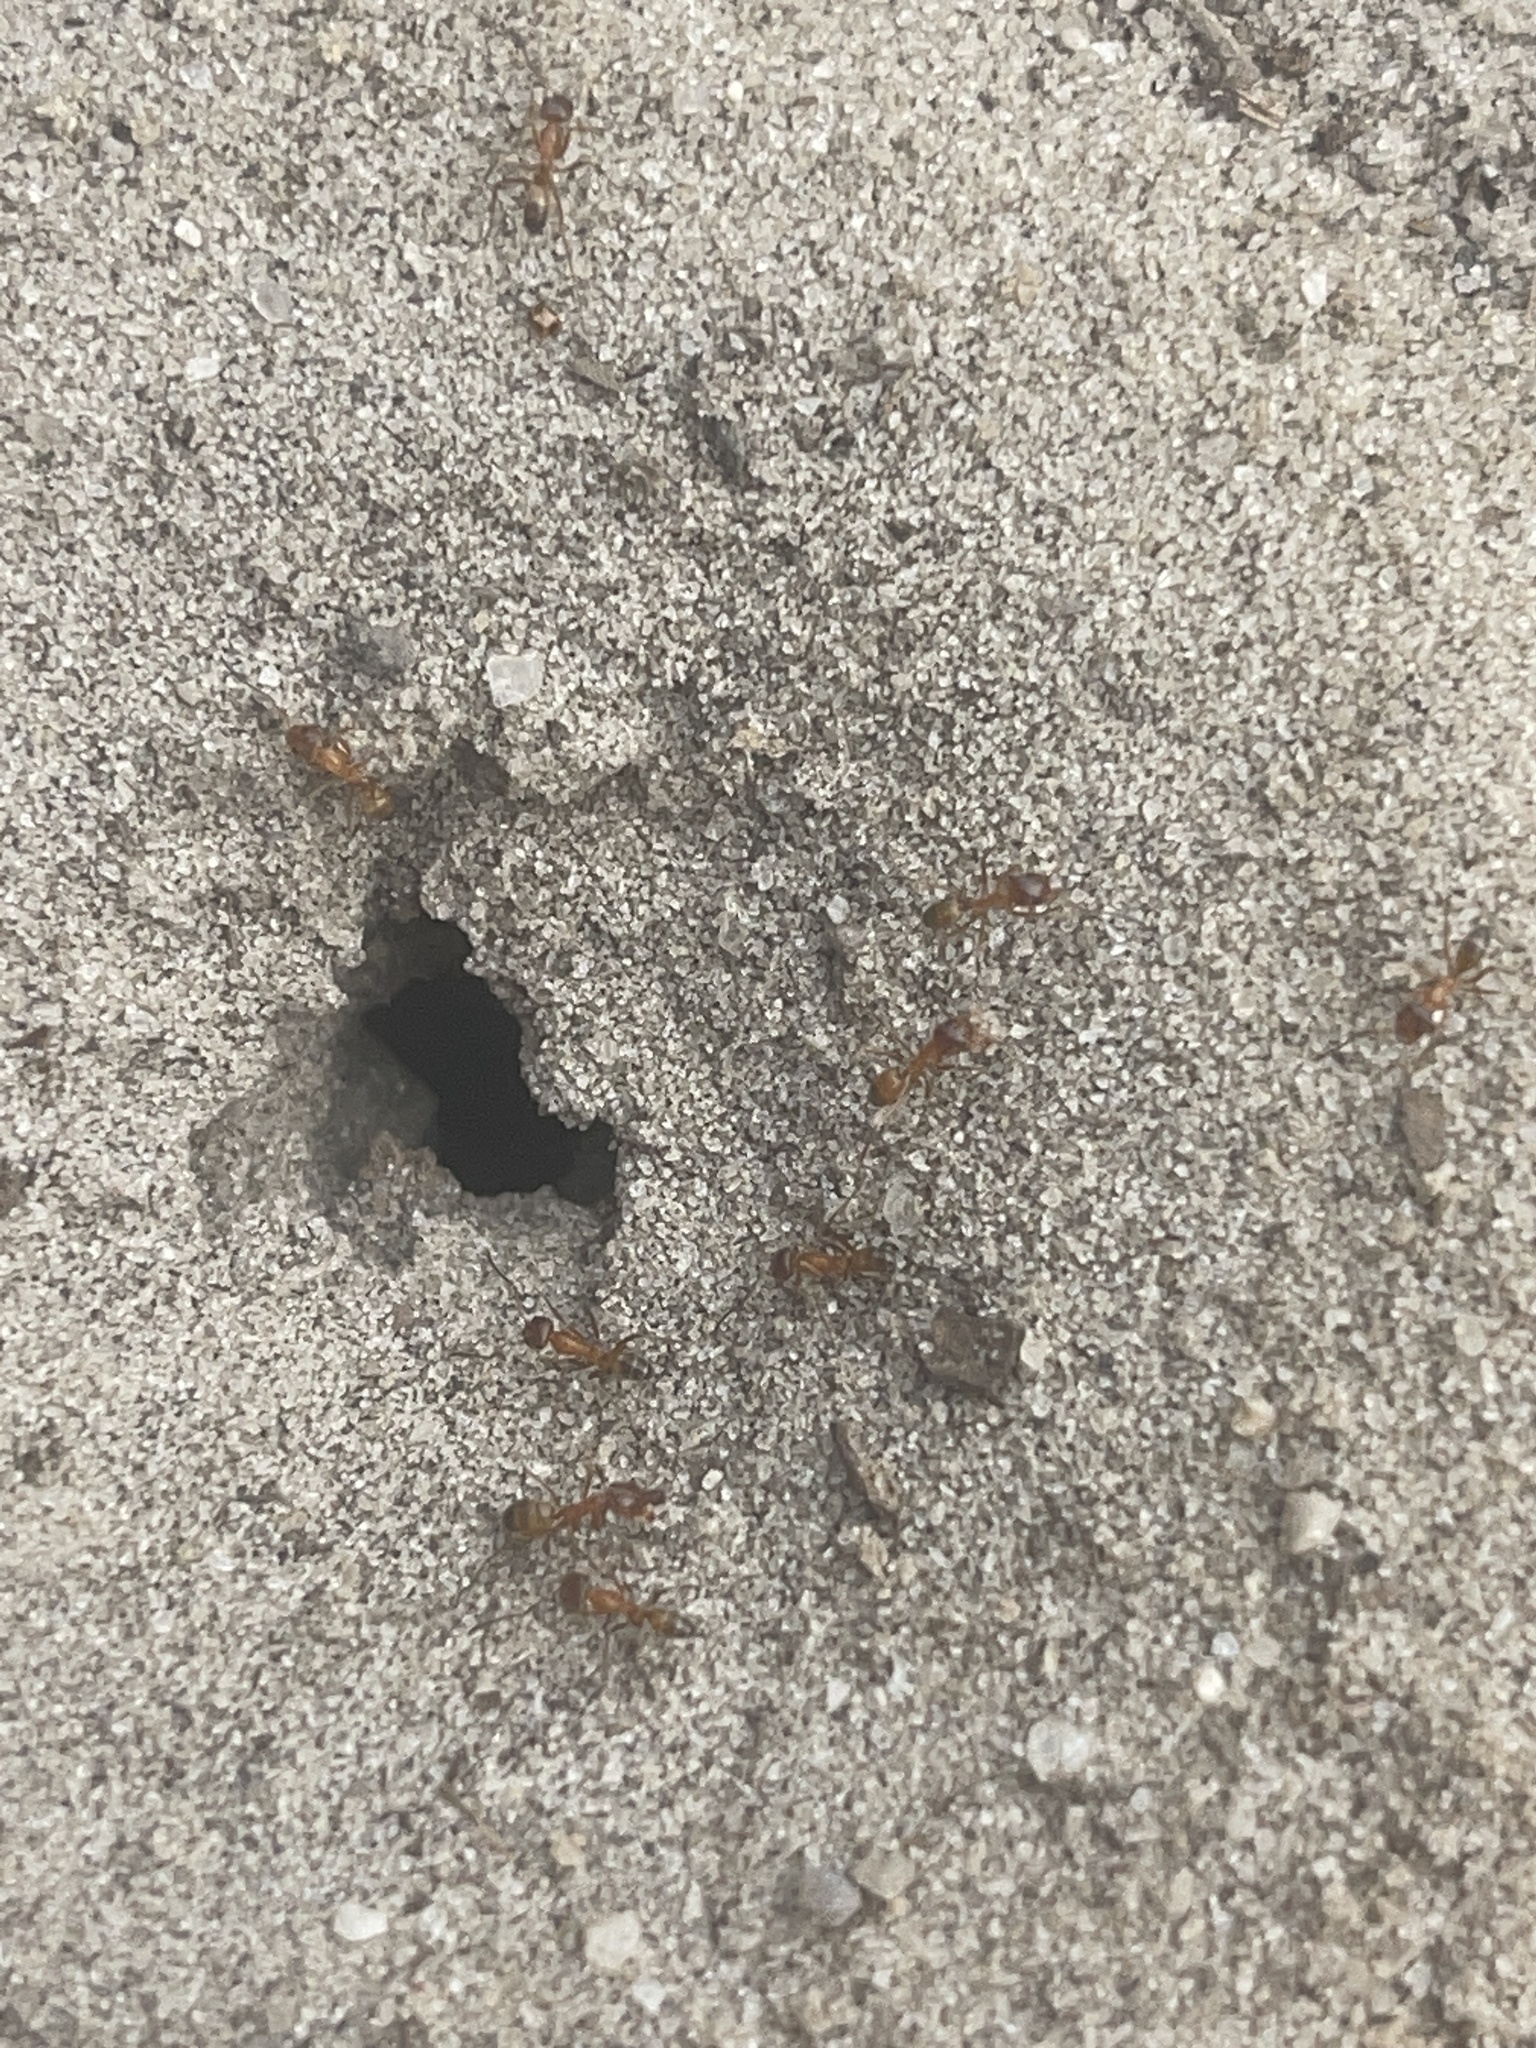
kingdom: Animalia
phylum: Arthropoda
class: Insecta
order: Hymenoptera
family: Formicidae
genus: Dorymyrmex
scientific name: Dorymyrmex bureni
